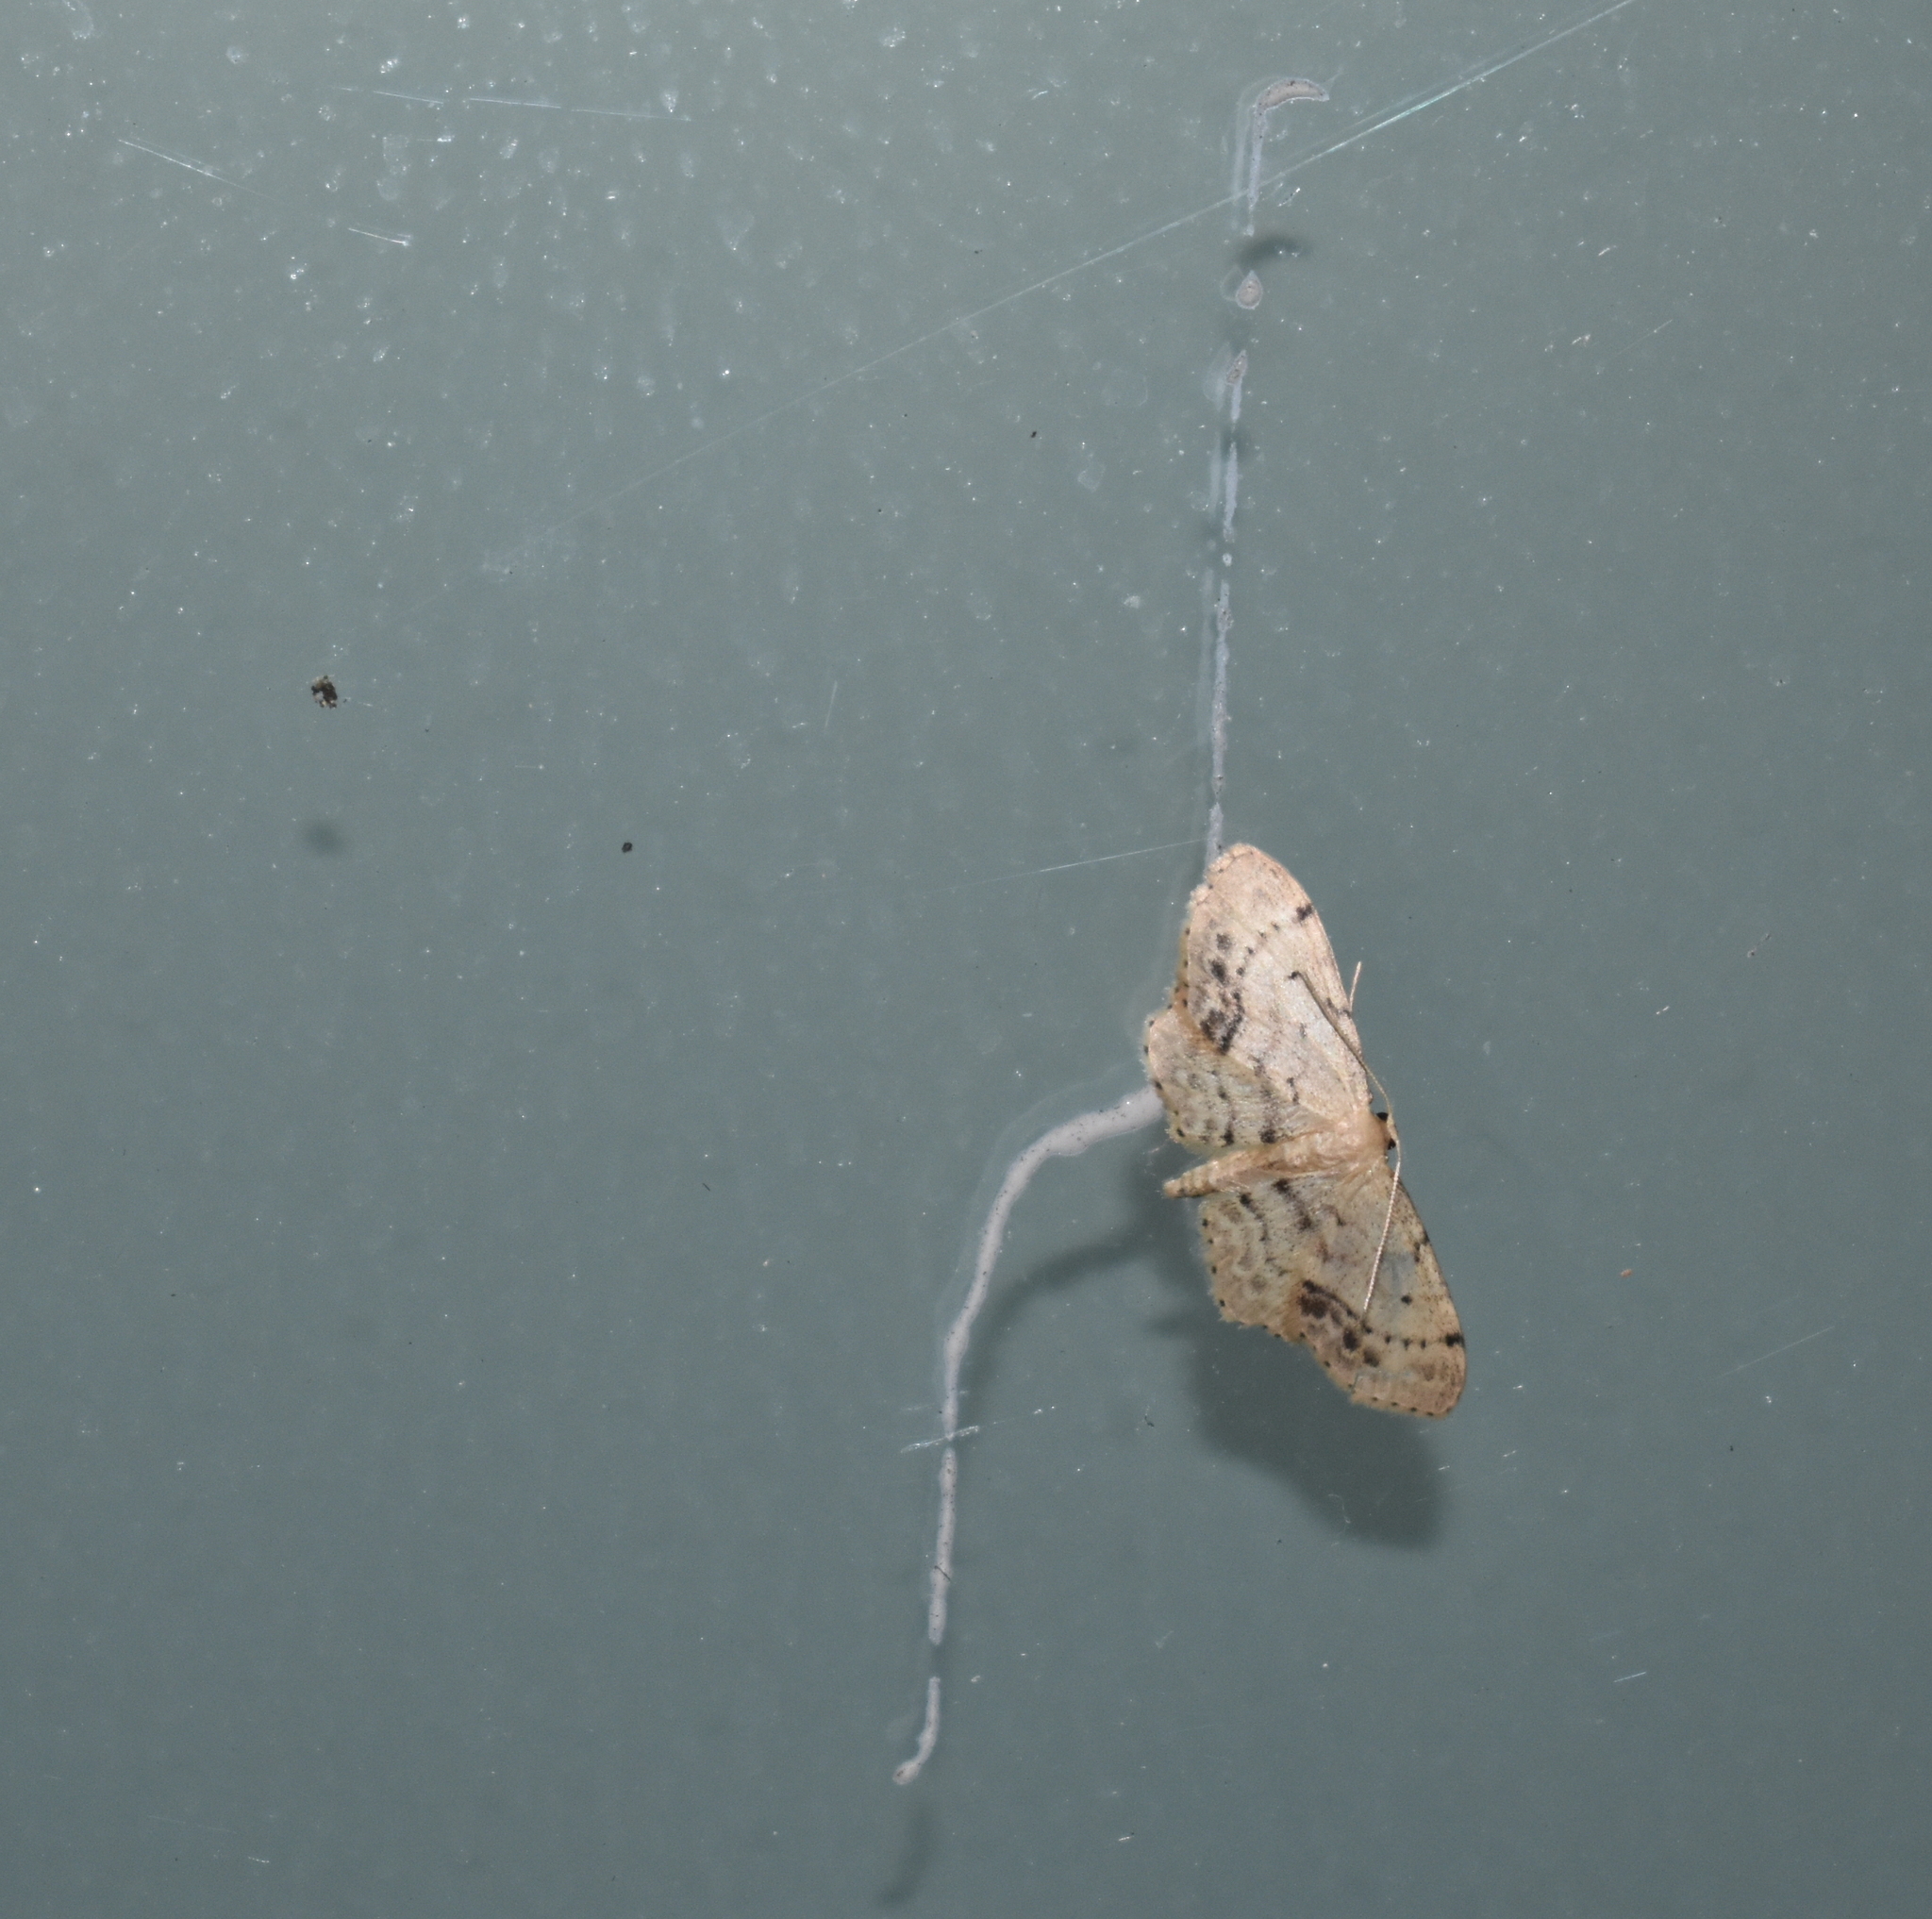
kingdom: Animalia
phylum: Arthropoda
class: Insecta
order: Lepidoptera
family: Geometridae
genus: Idaea
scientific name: Idaea dimidiata
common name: Single-dotted wave
